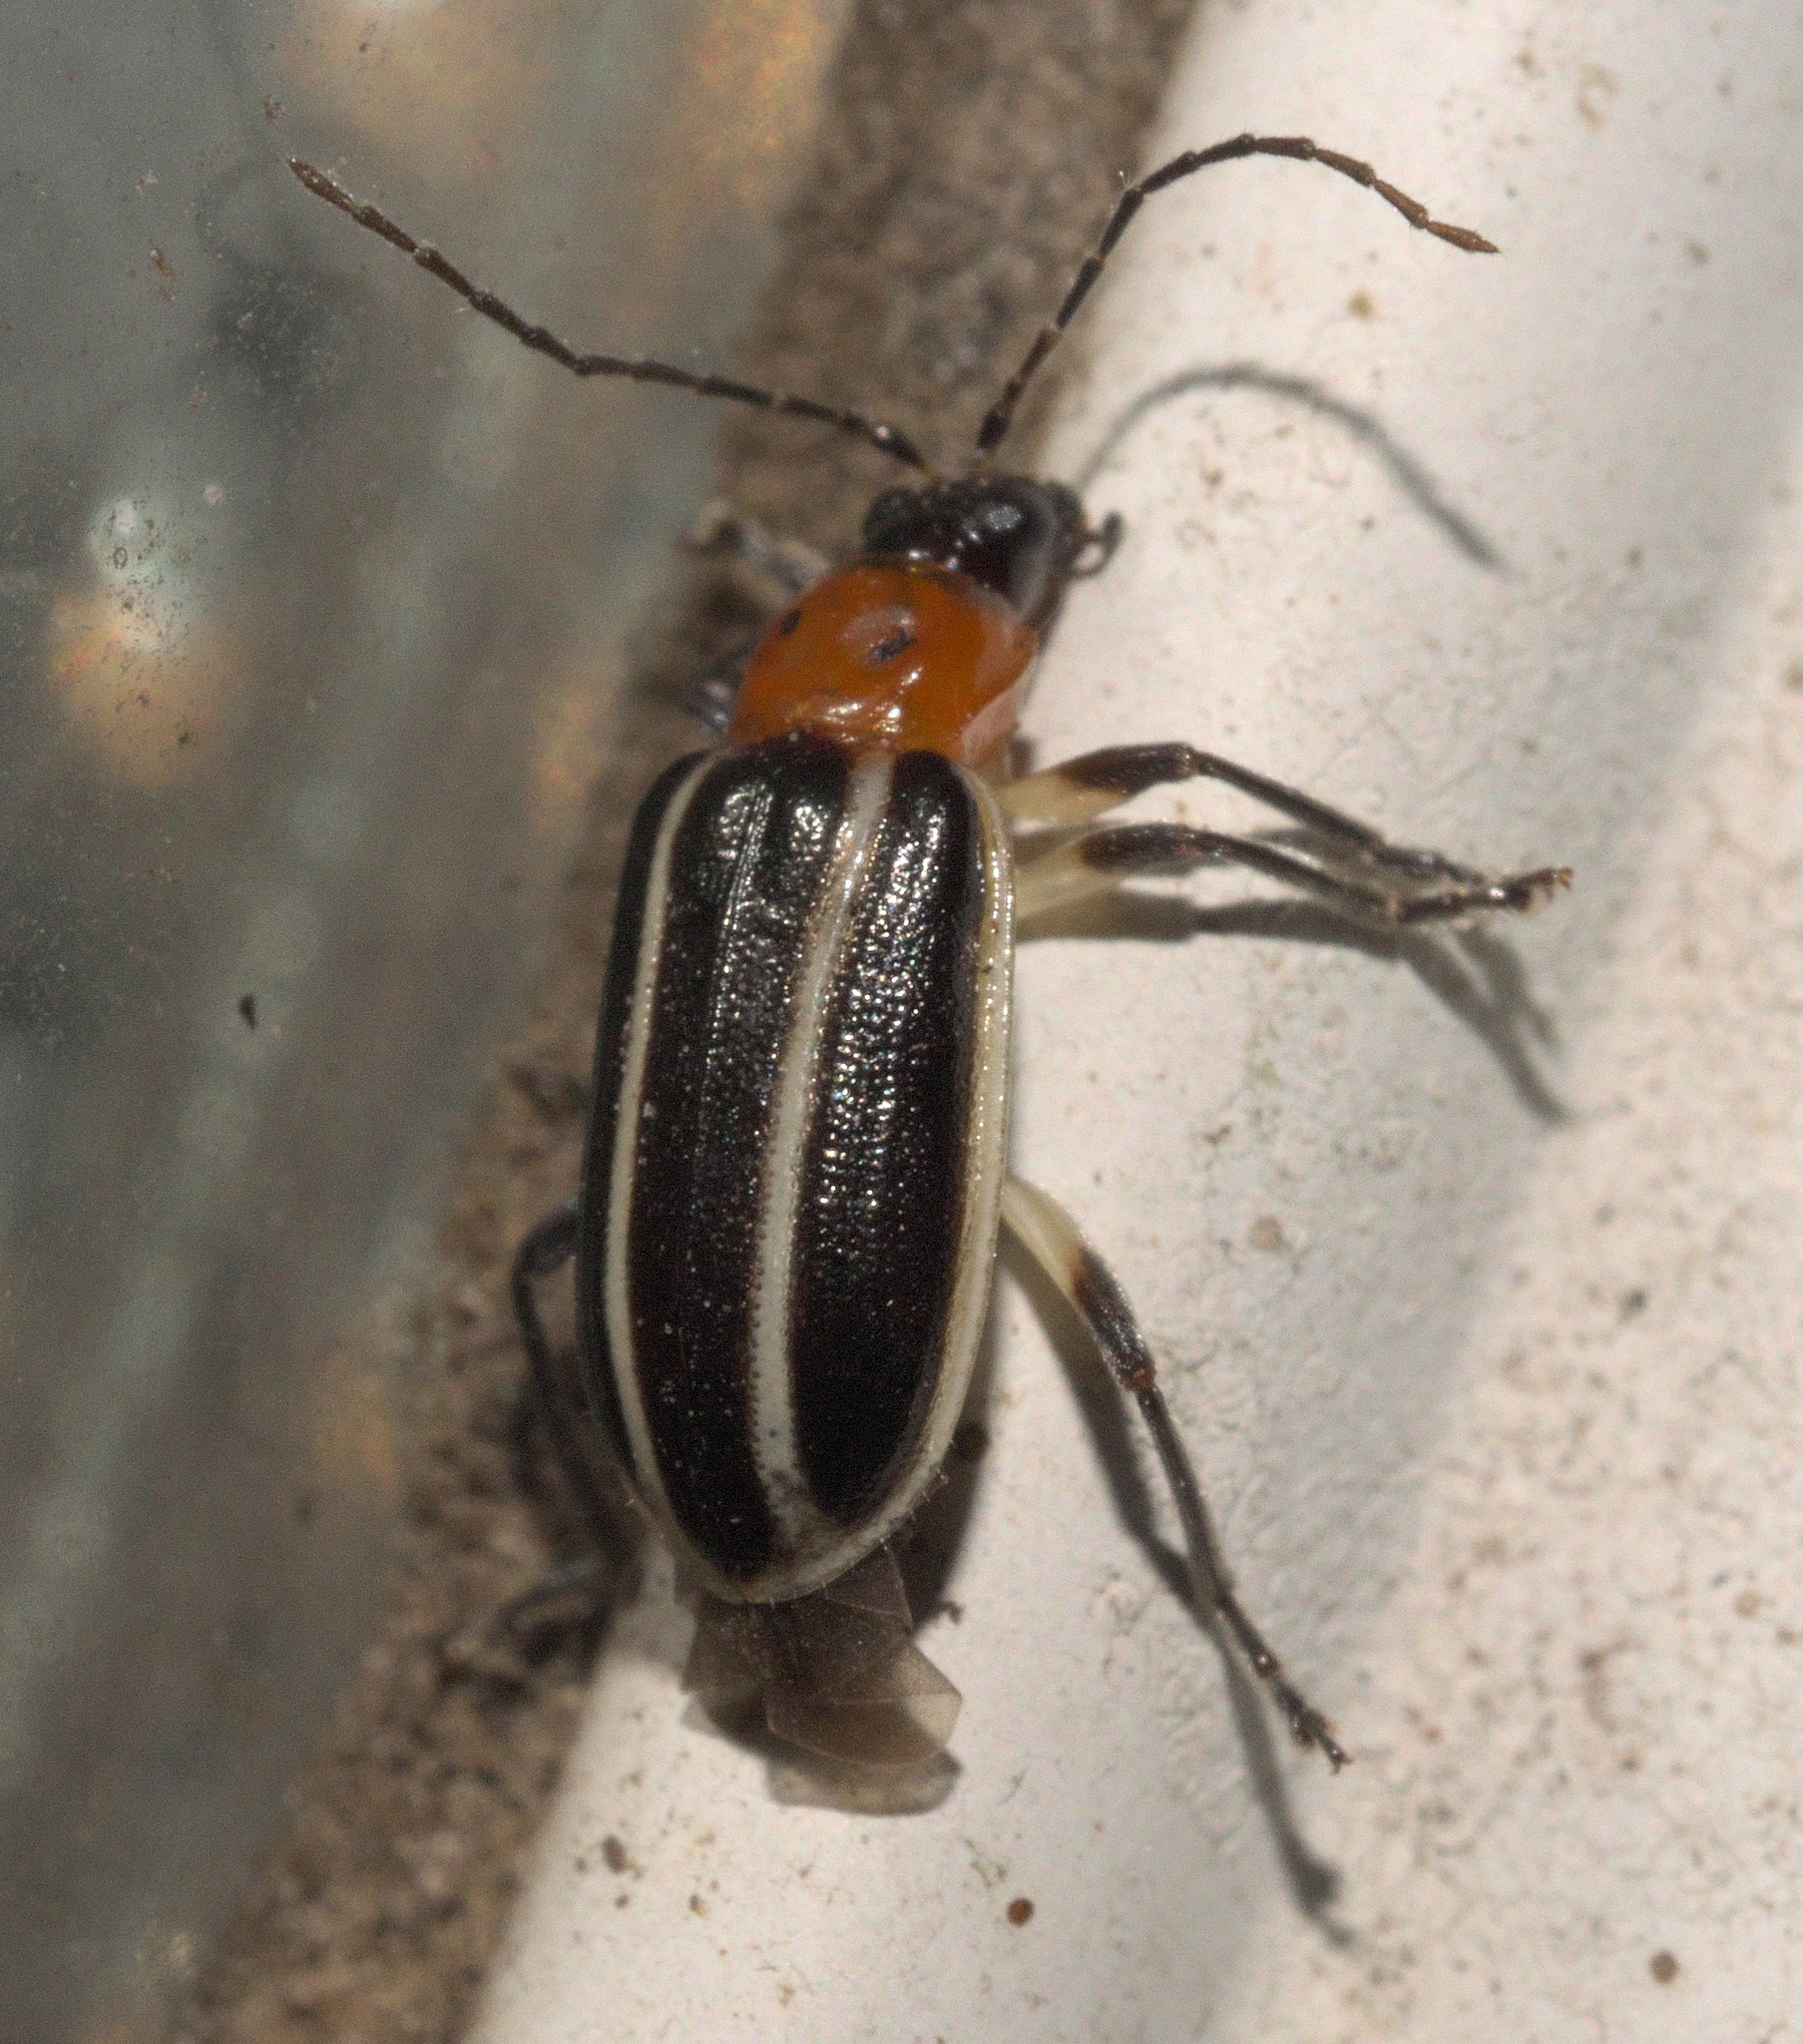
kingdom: Animalia
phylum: Arthropoda
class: Insecta
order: Coleoptera
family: Chrysomelidae
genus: Acalymma
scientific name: Acalymma vinctum
